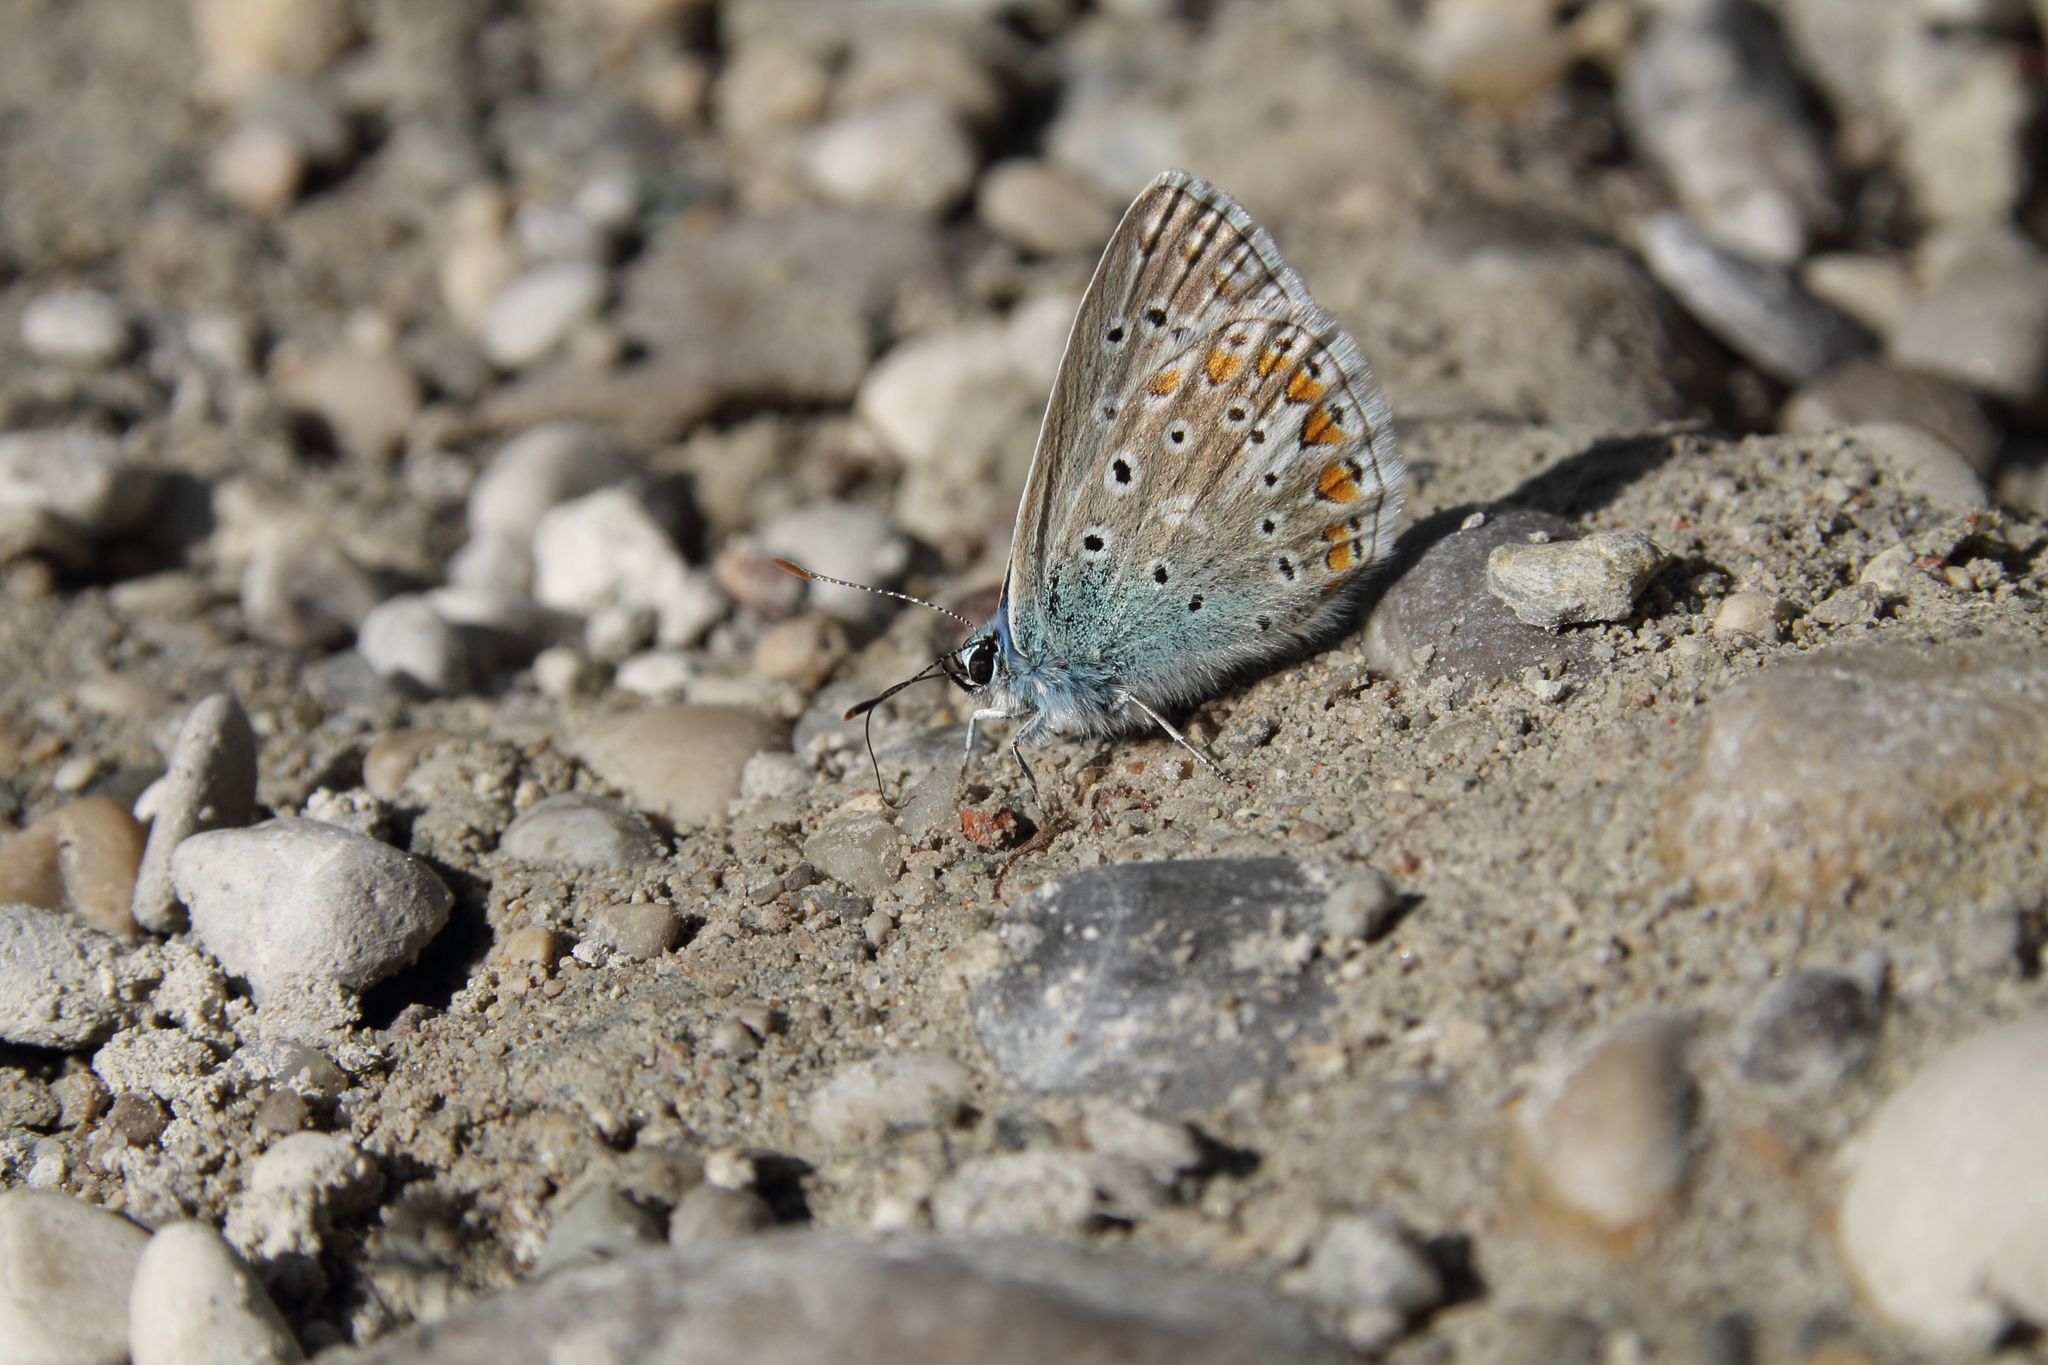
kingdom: Animalia
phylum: Arthropoda
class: Insecta
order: Lepidoptera
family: Lycaenidae
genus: Polyommatus
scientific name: Polyommatus icarus
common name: Common blue
